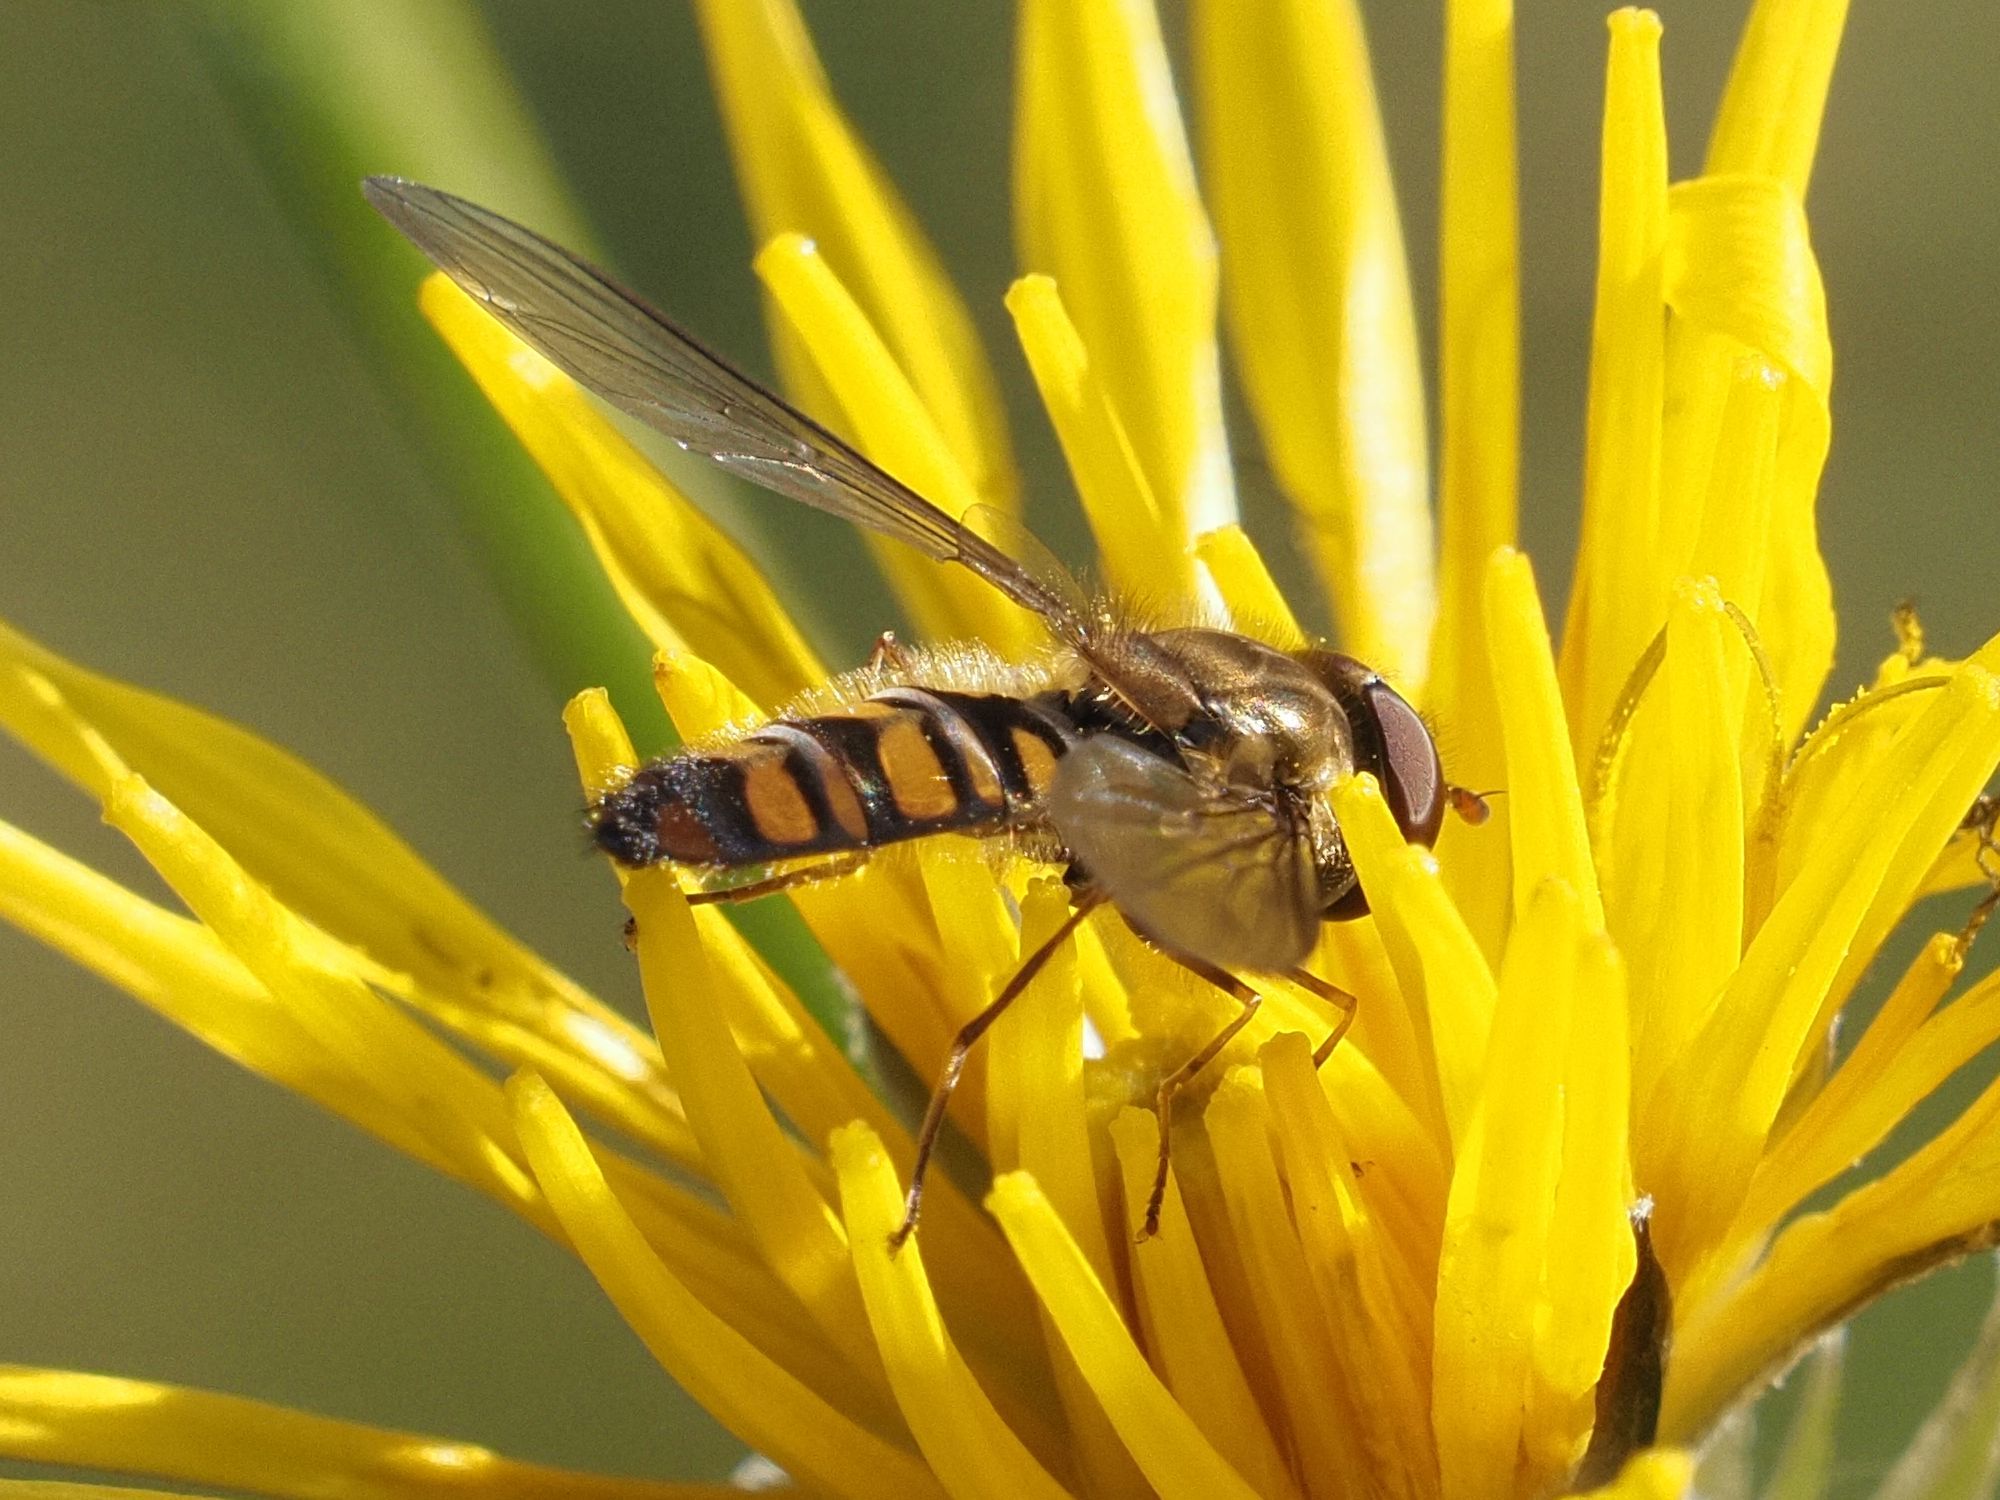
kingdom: Animalia
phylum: Arthropoda
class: Insecta
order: Diptera
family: Syrphidae
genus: Episyrphus
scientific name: Episyrphus balteatus
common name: Marmalade hoverfly
